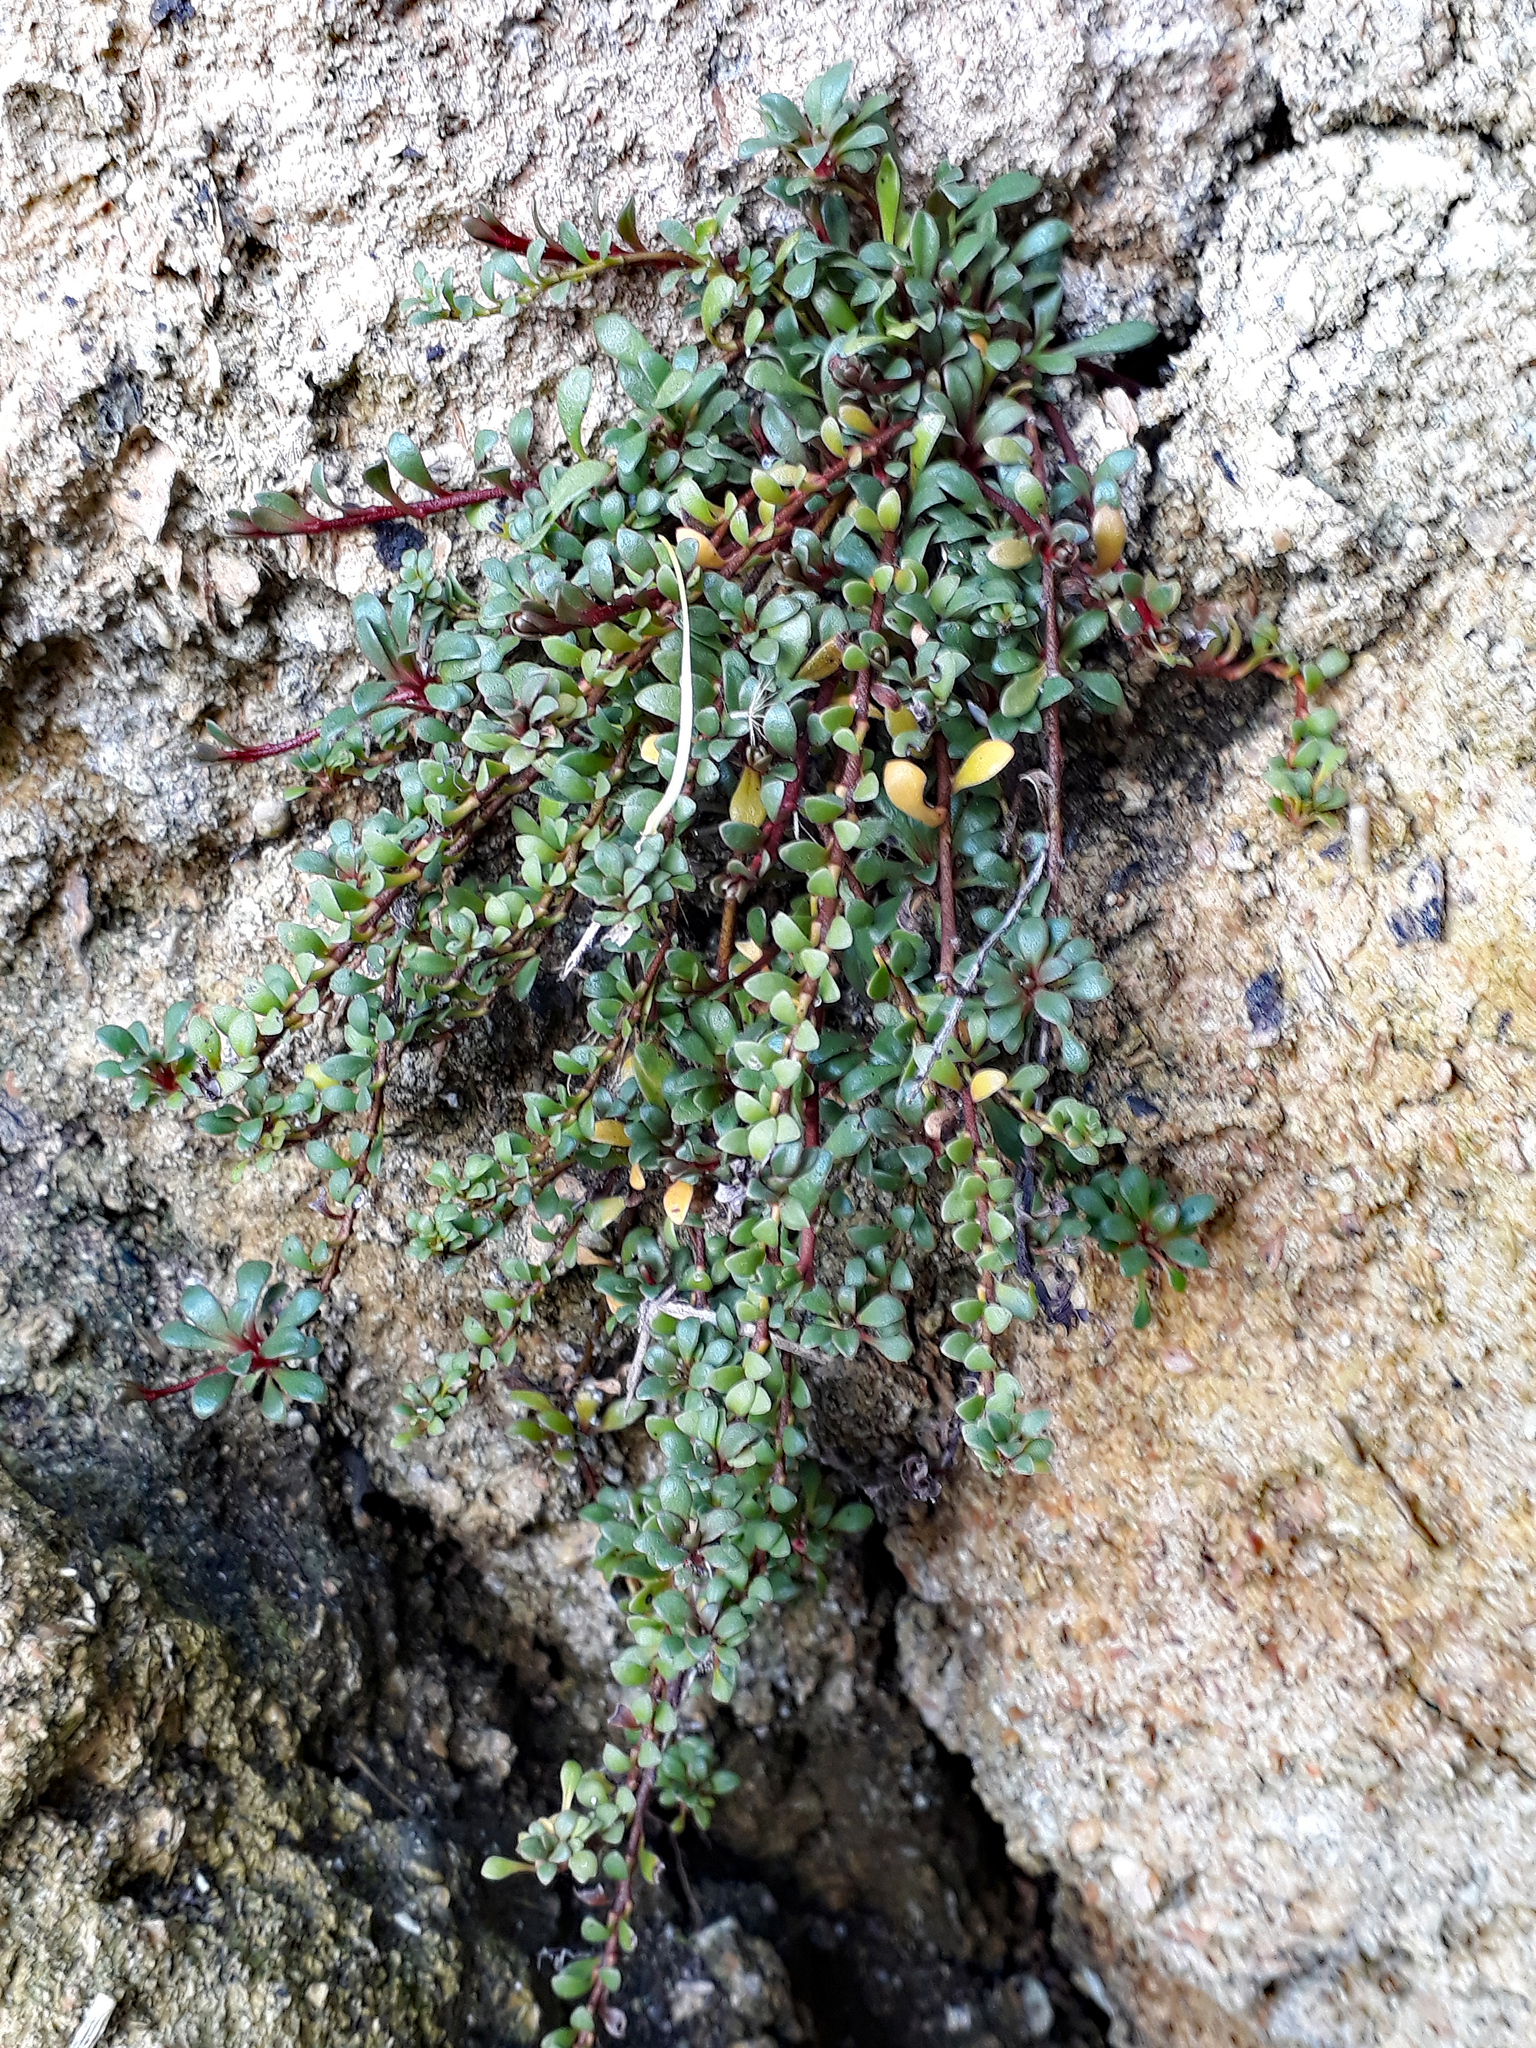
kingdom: Plantae
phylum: Tracheophyta
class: Magnoliopsida
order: Ericales
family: Primulaceae
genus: Samolus
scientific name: Samolus repens
